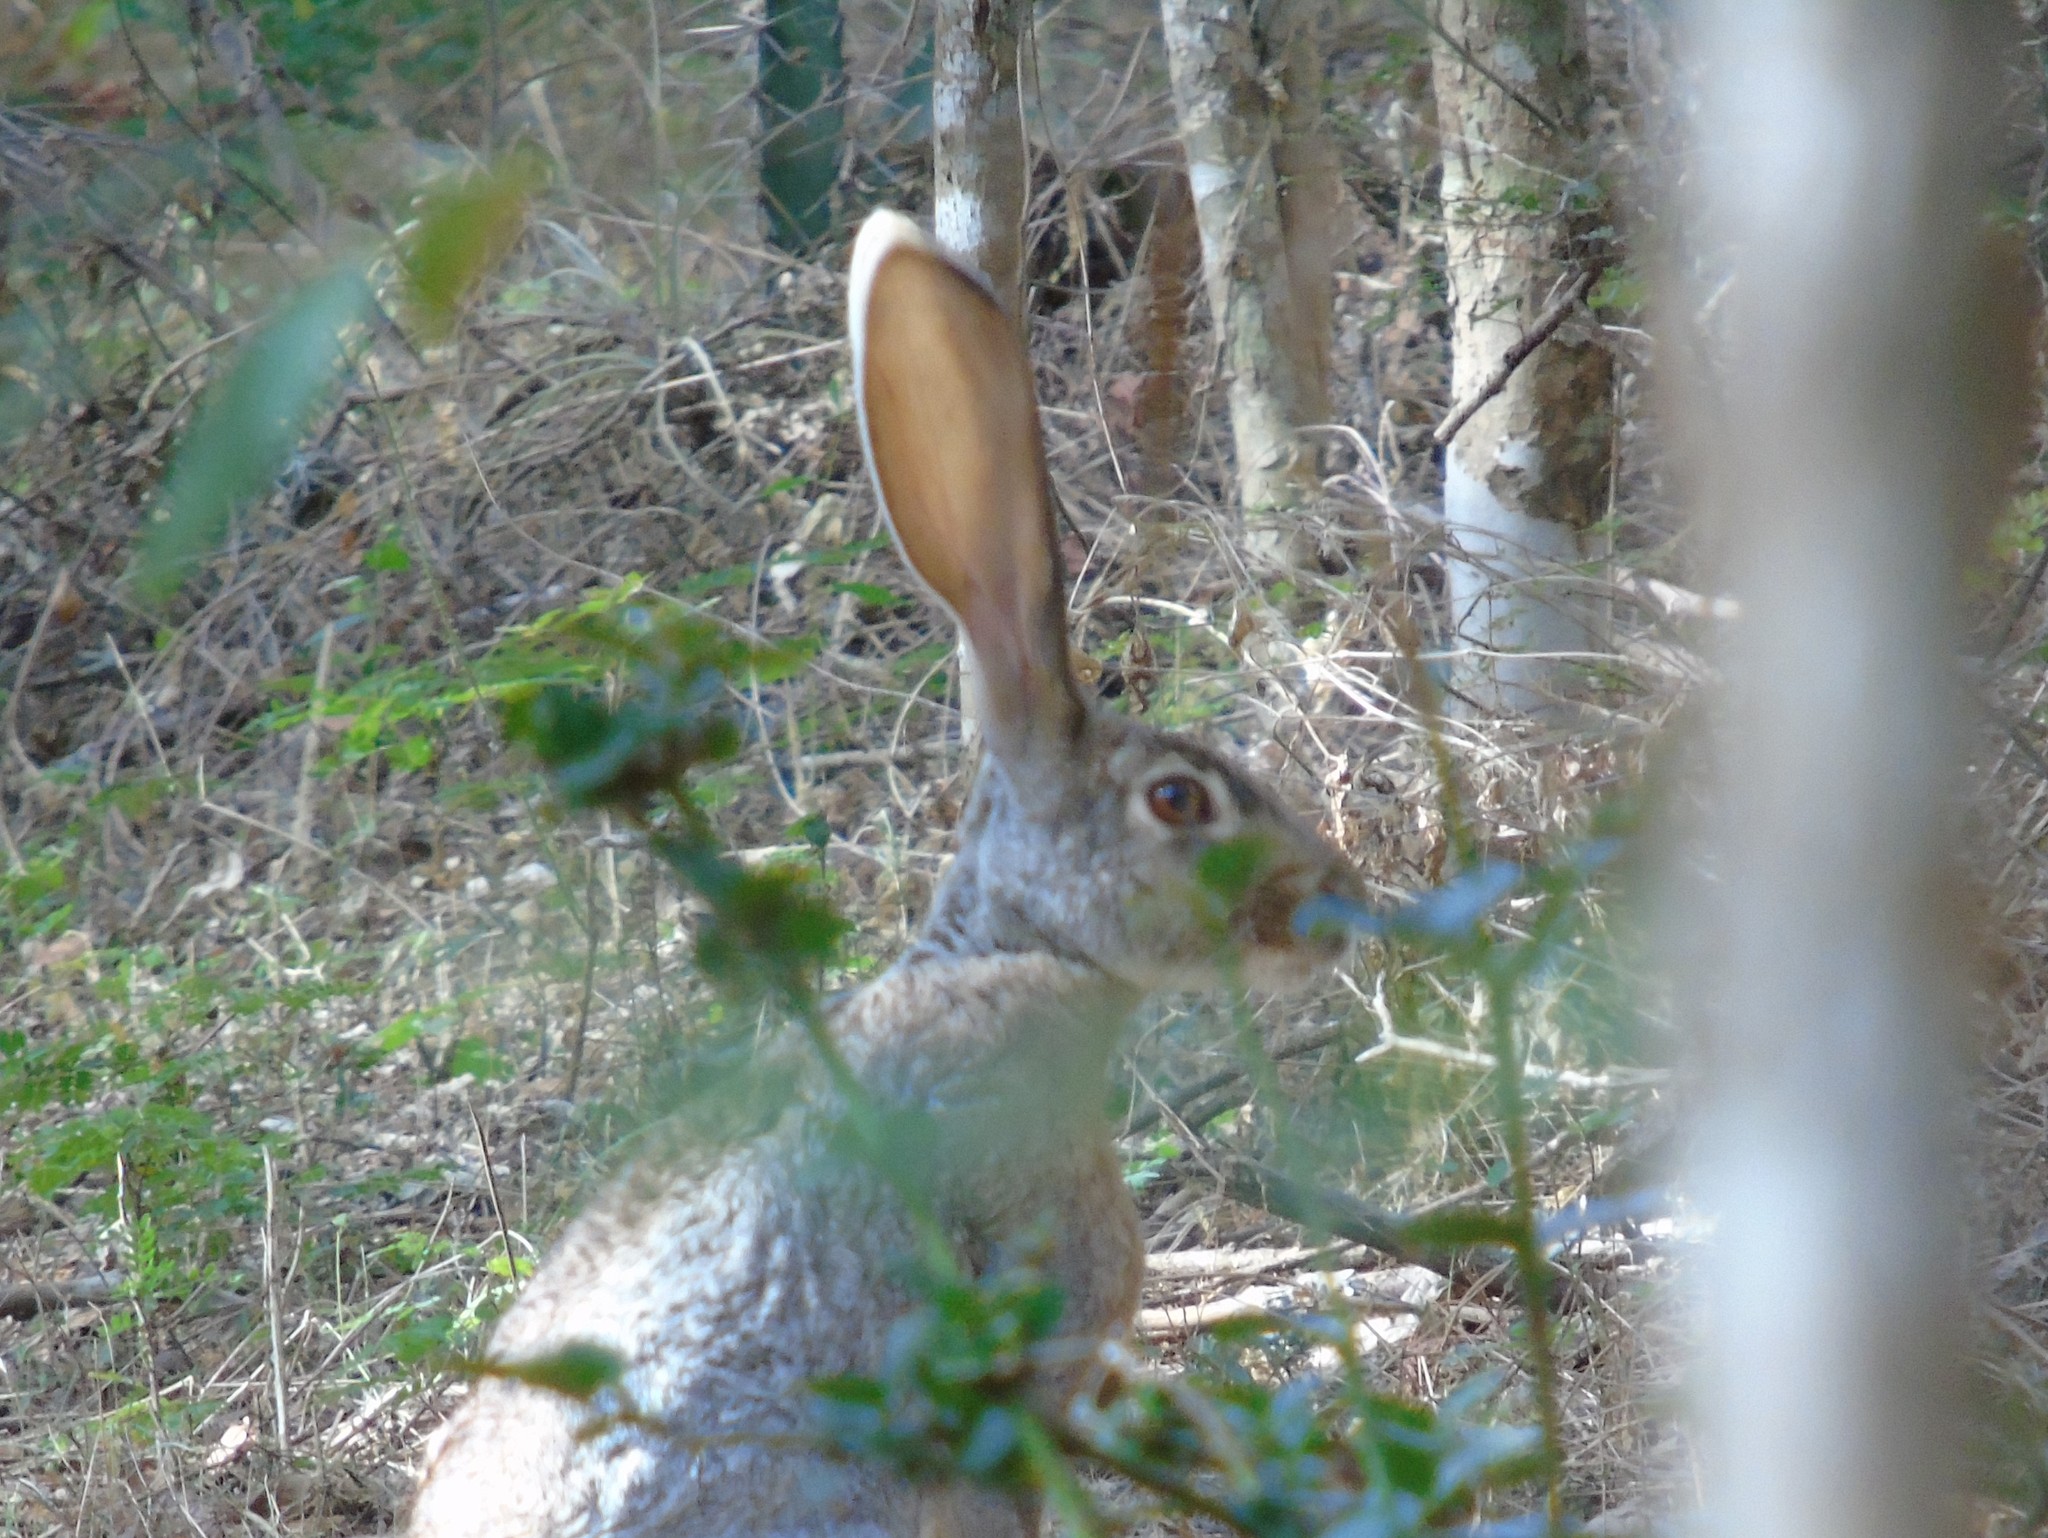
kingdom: Animalia
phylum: Chordata
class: Mammalia
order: Lagomorpha
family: Leporidae
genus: Lepus
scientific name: Lepus alleni
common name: Antelope jackrabbit
